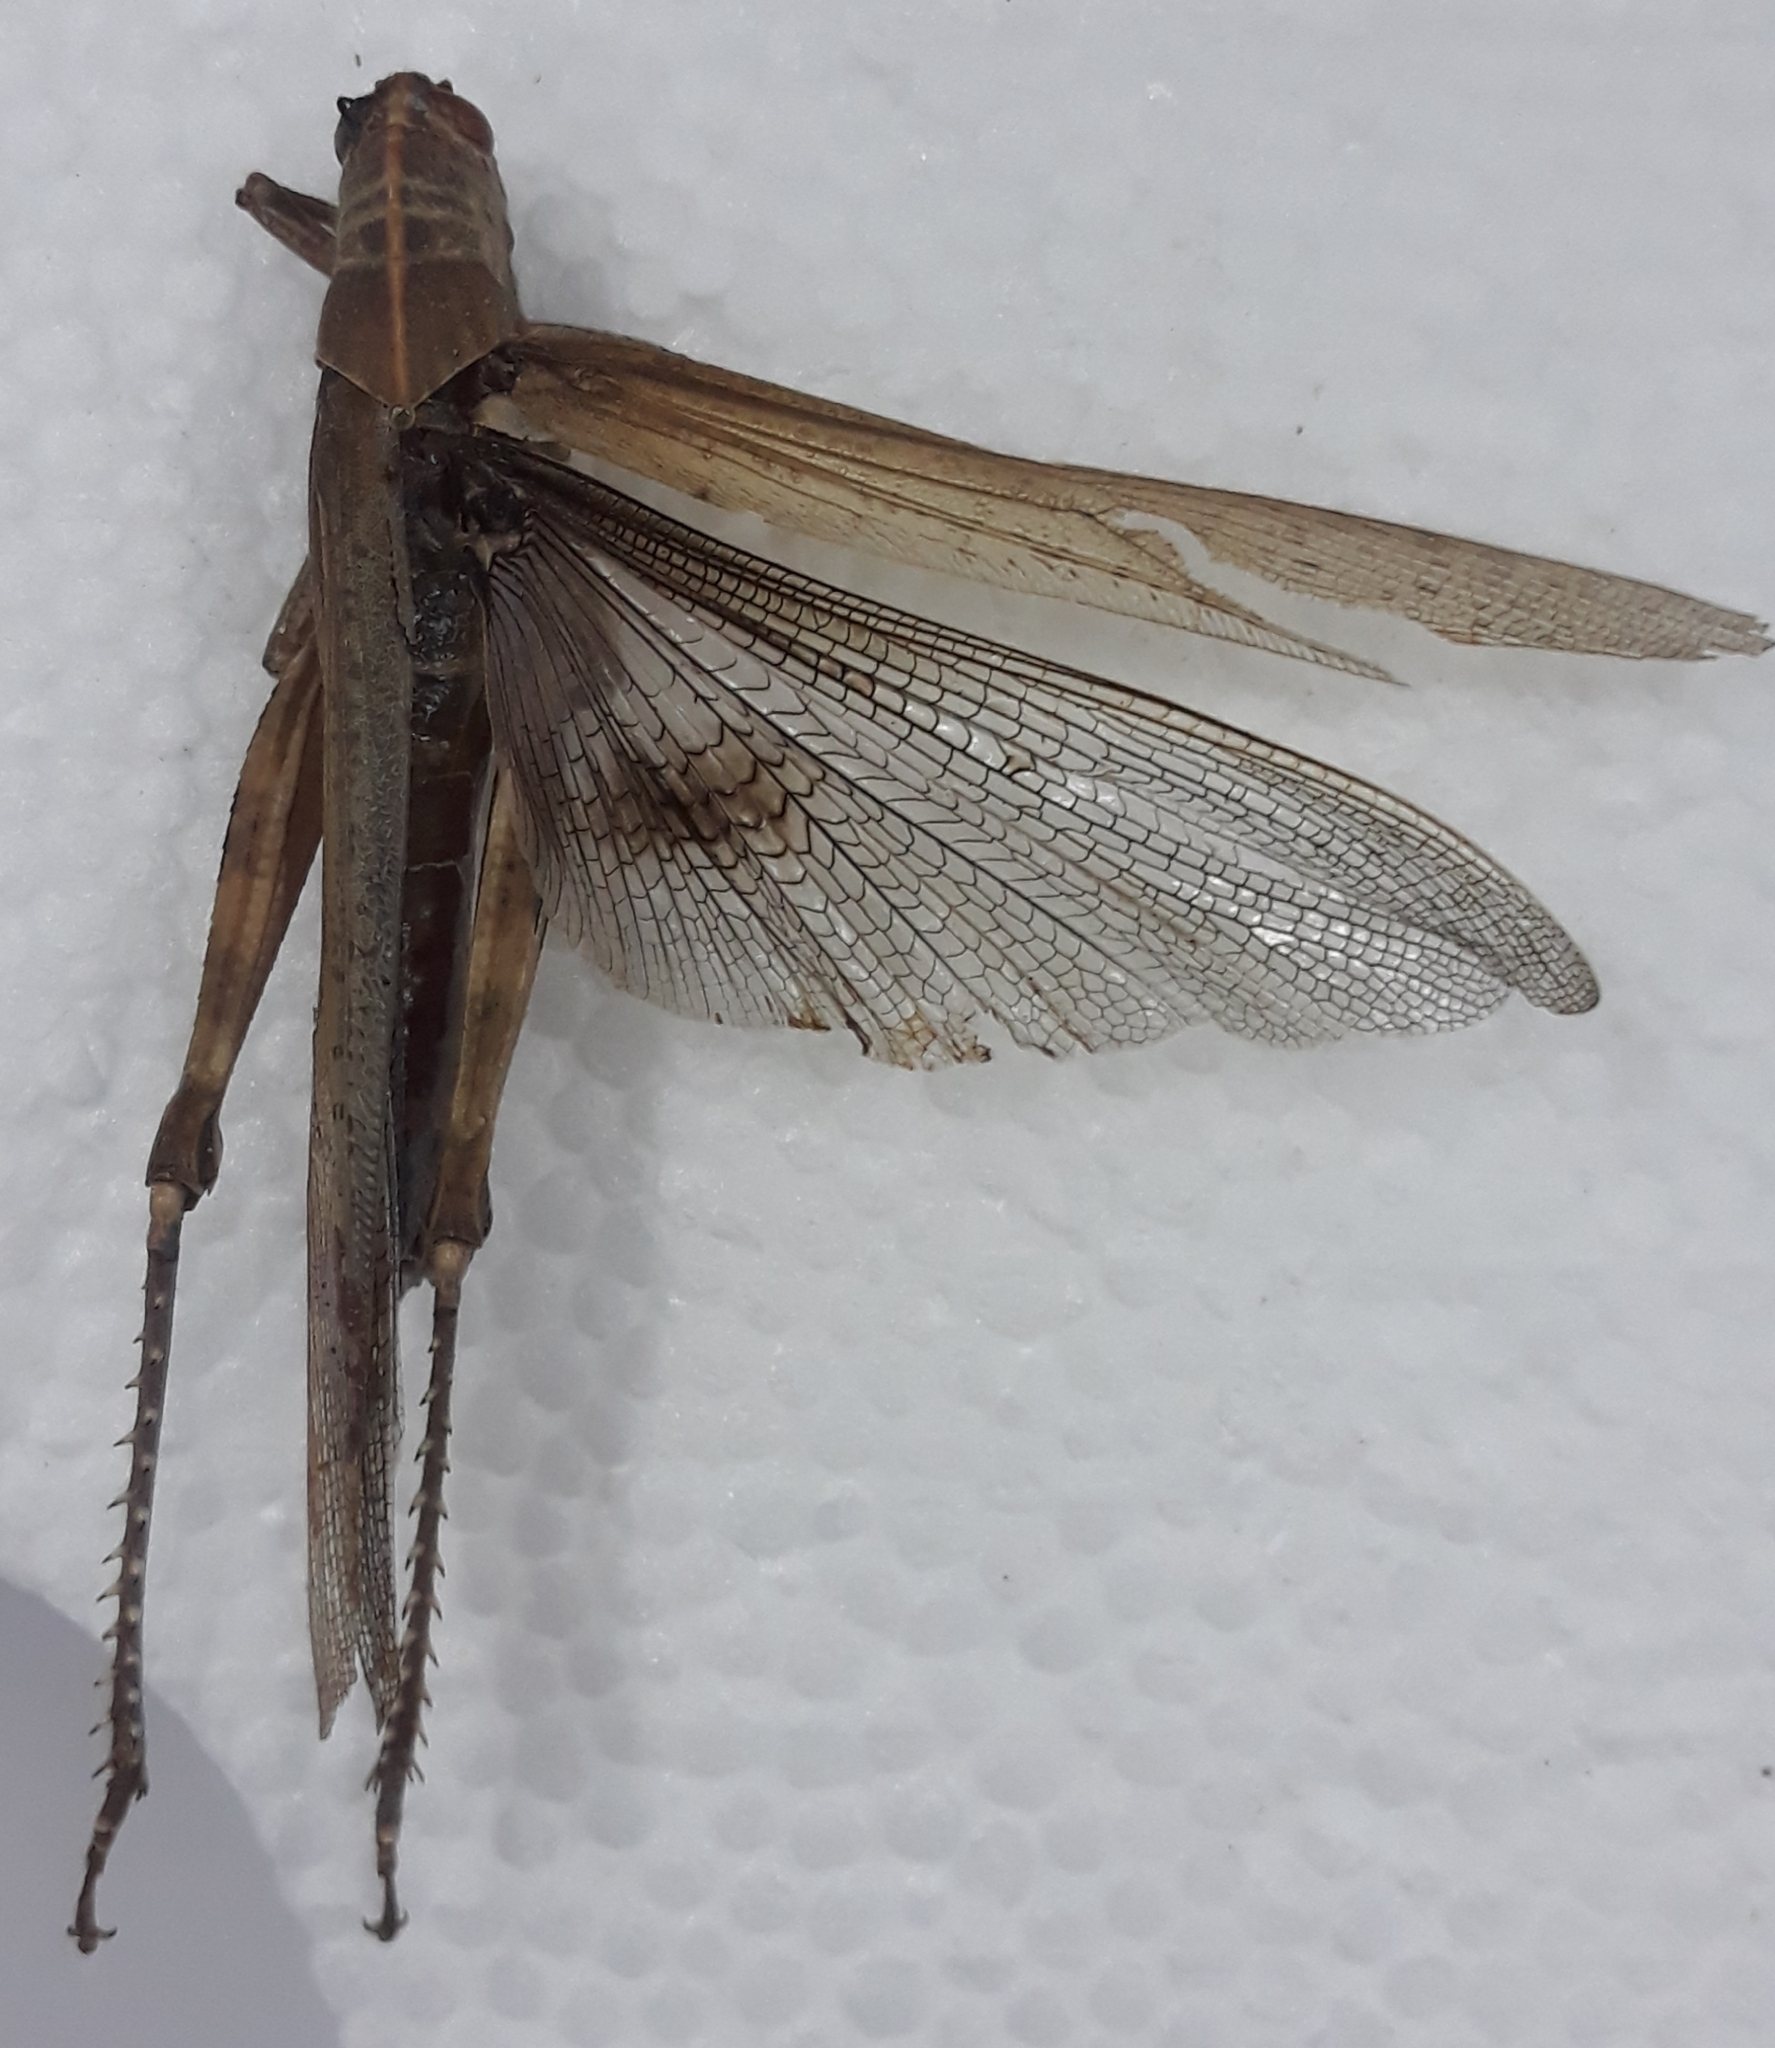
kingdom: Animalia
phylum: Arthropoda
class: Insecta
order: Orthoptera
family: Acrididae
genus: Anacridium
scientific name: Anacridium aegyptium
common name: Egyptian grasshopper
